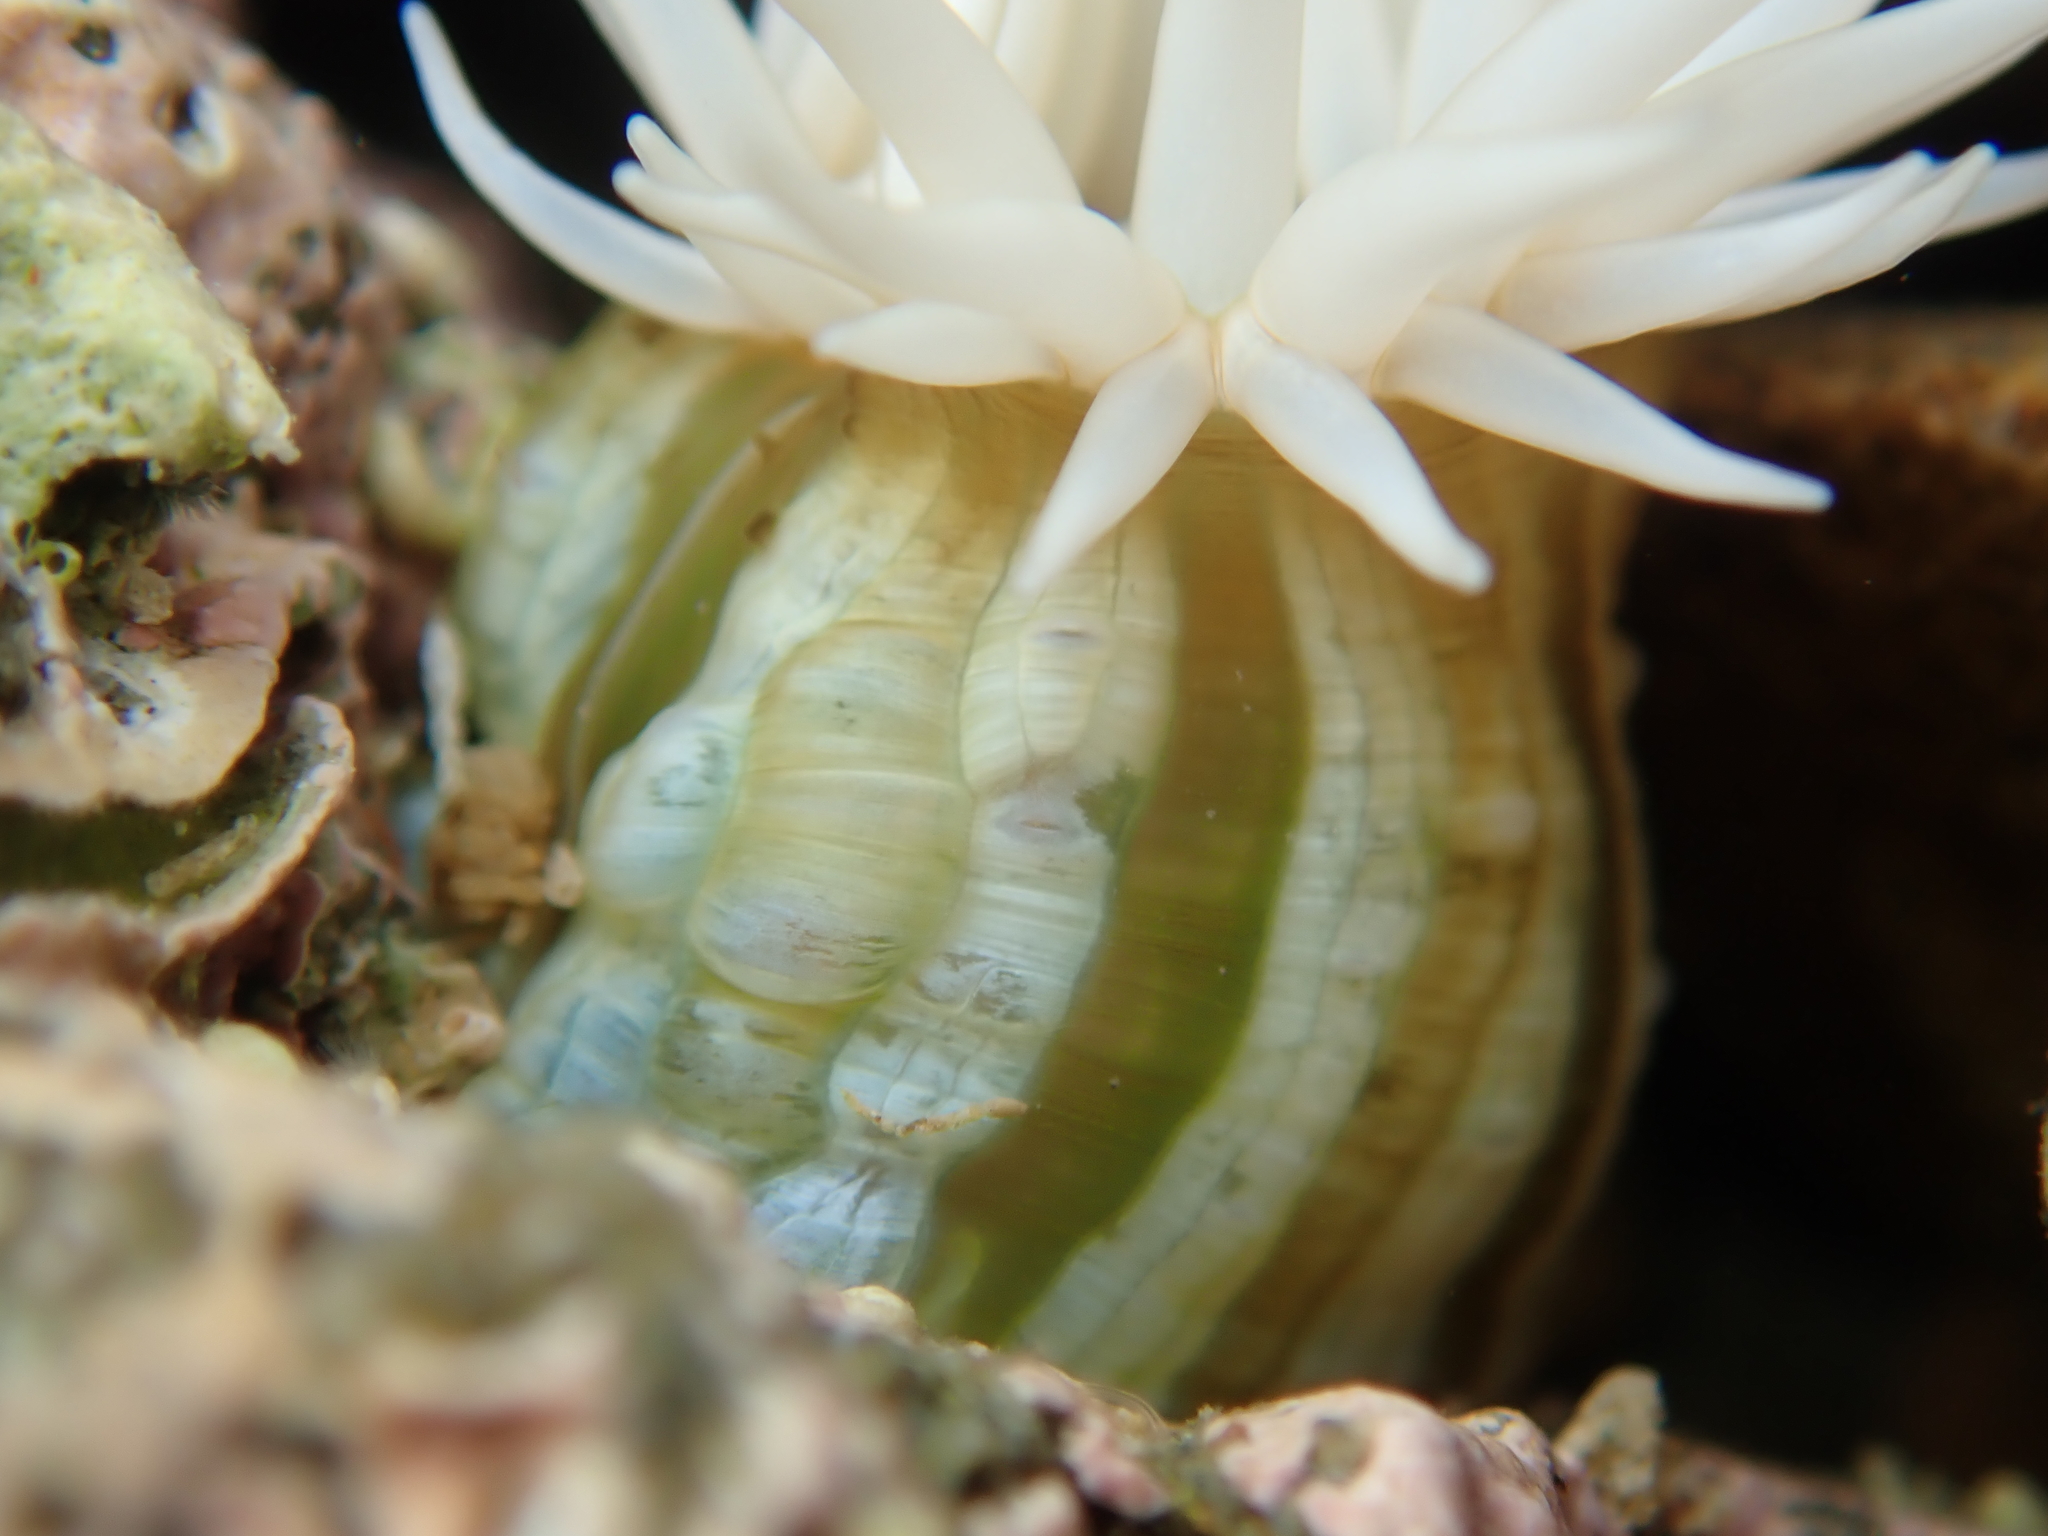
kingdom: Animalia
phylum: Cnidaria
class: Anthozoa
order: Actiniaria
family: Sagartiidae
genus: Anthothoe
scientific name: Anthothoe albocincta
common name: Orange striped anemone
